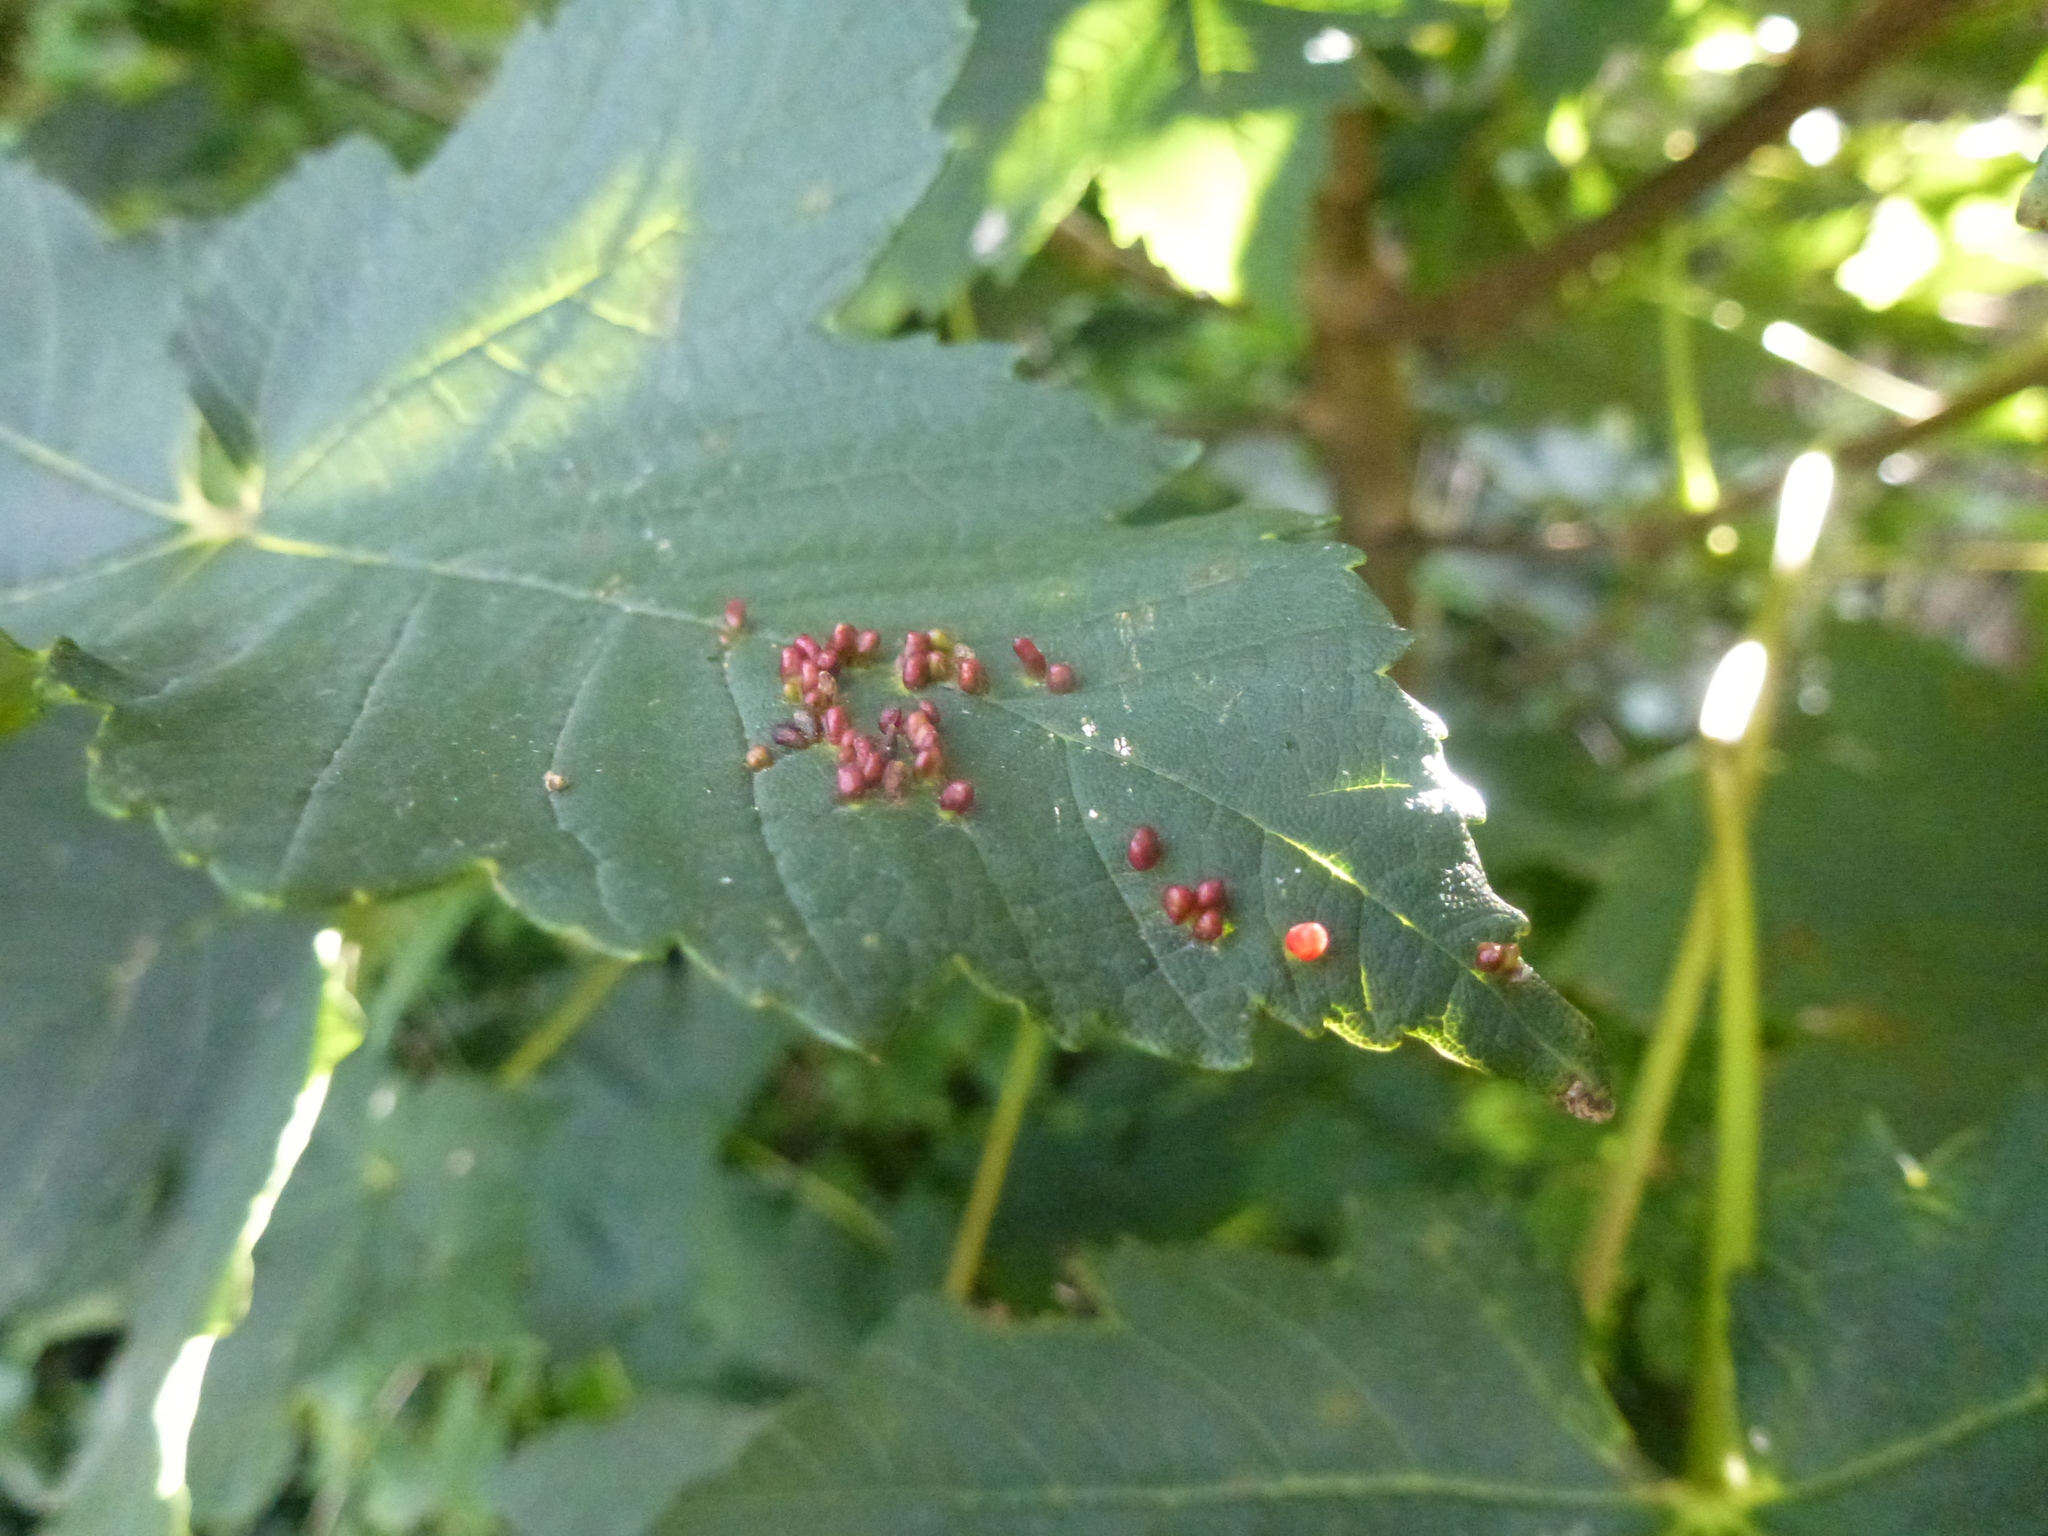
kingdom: Animalia
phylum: Arthropoda
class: Arachnida
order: Trombidiformes
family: Eriophyidae
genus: Aceria
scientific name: Aceria cephaloneus
